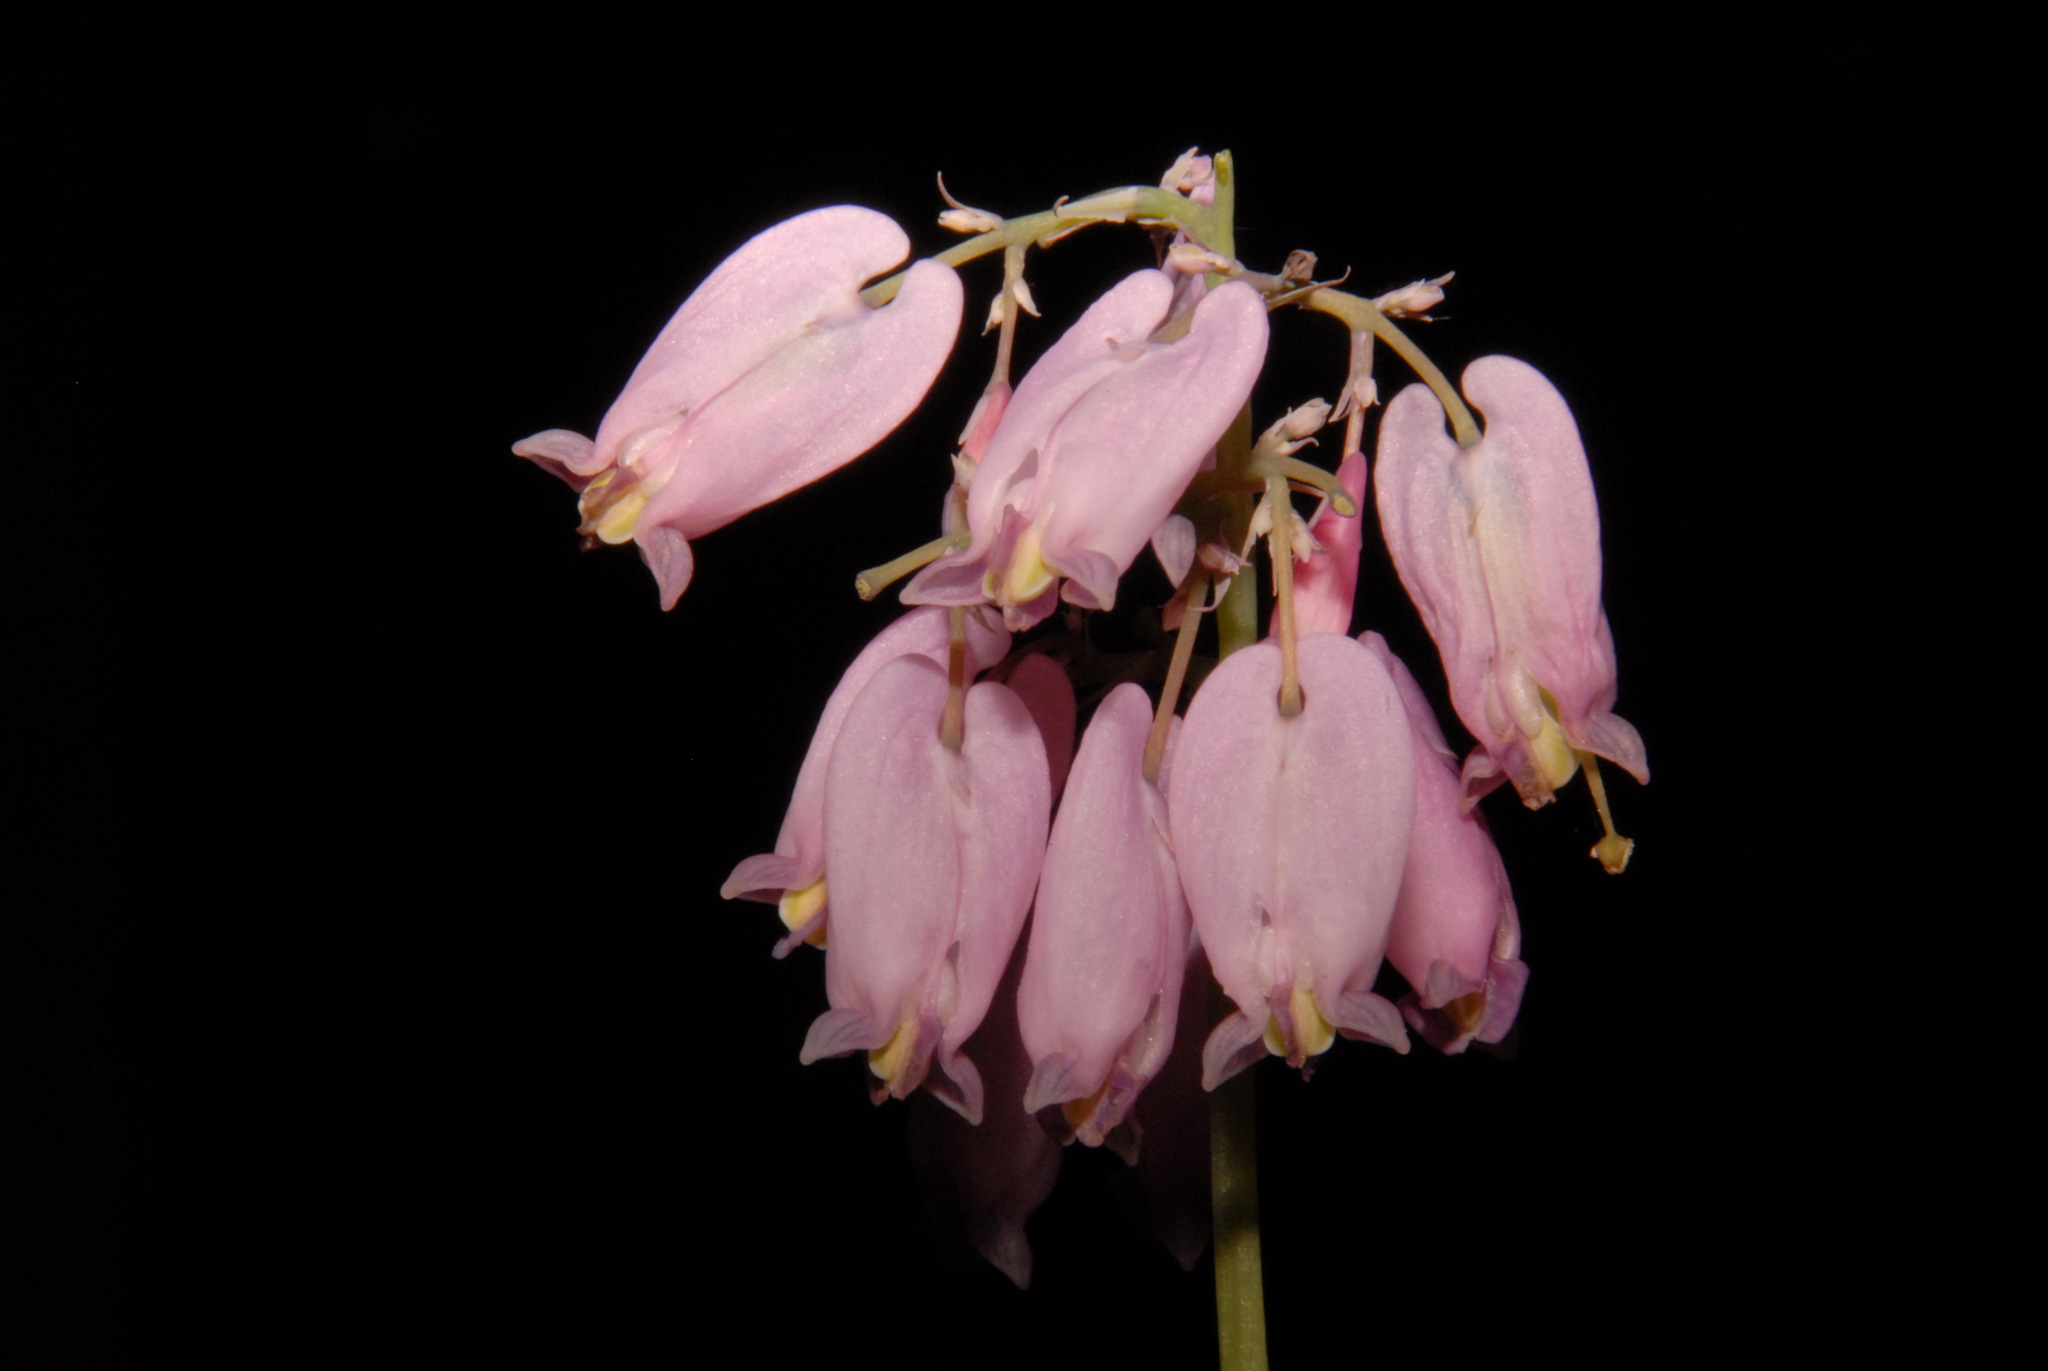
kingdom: Plantae
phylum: Tracheophyta
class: Magnoliopsida
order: Ranunculales
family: Papaveraceae
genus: Dicentra
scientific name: Dicentra formosa
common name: Bleeding-heart
